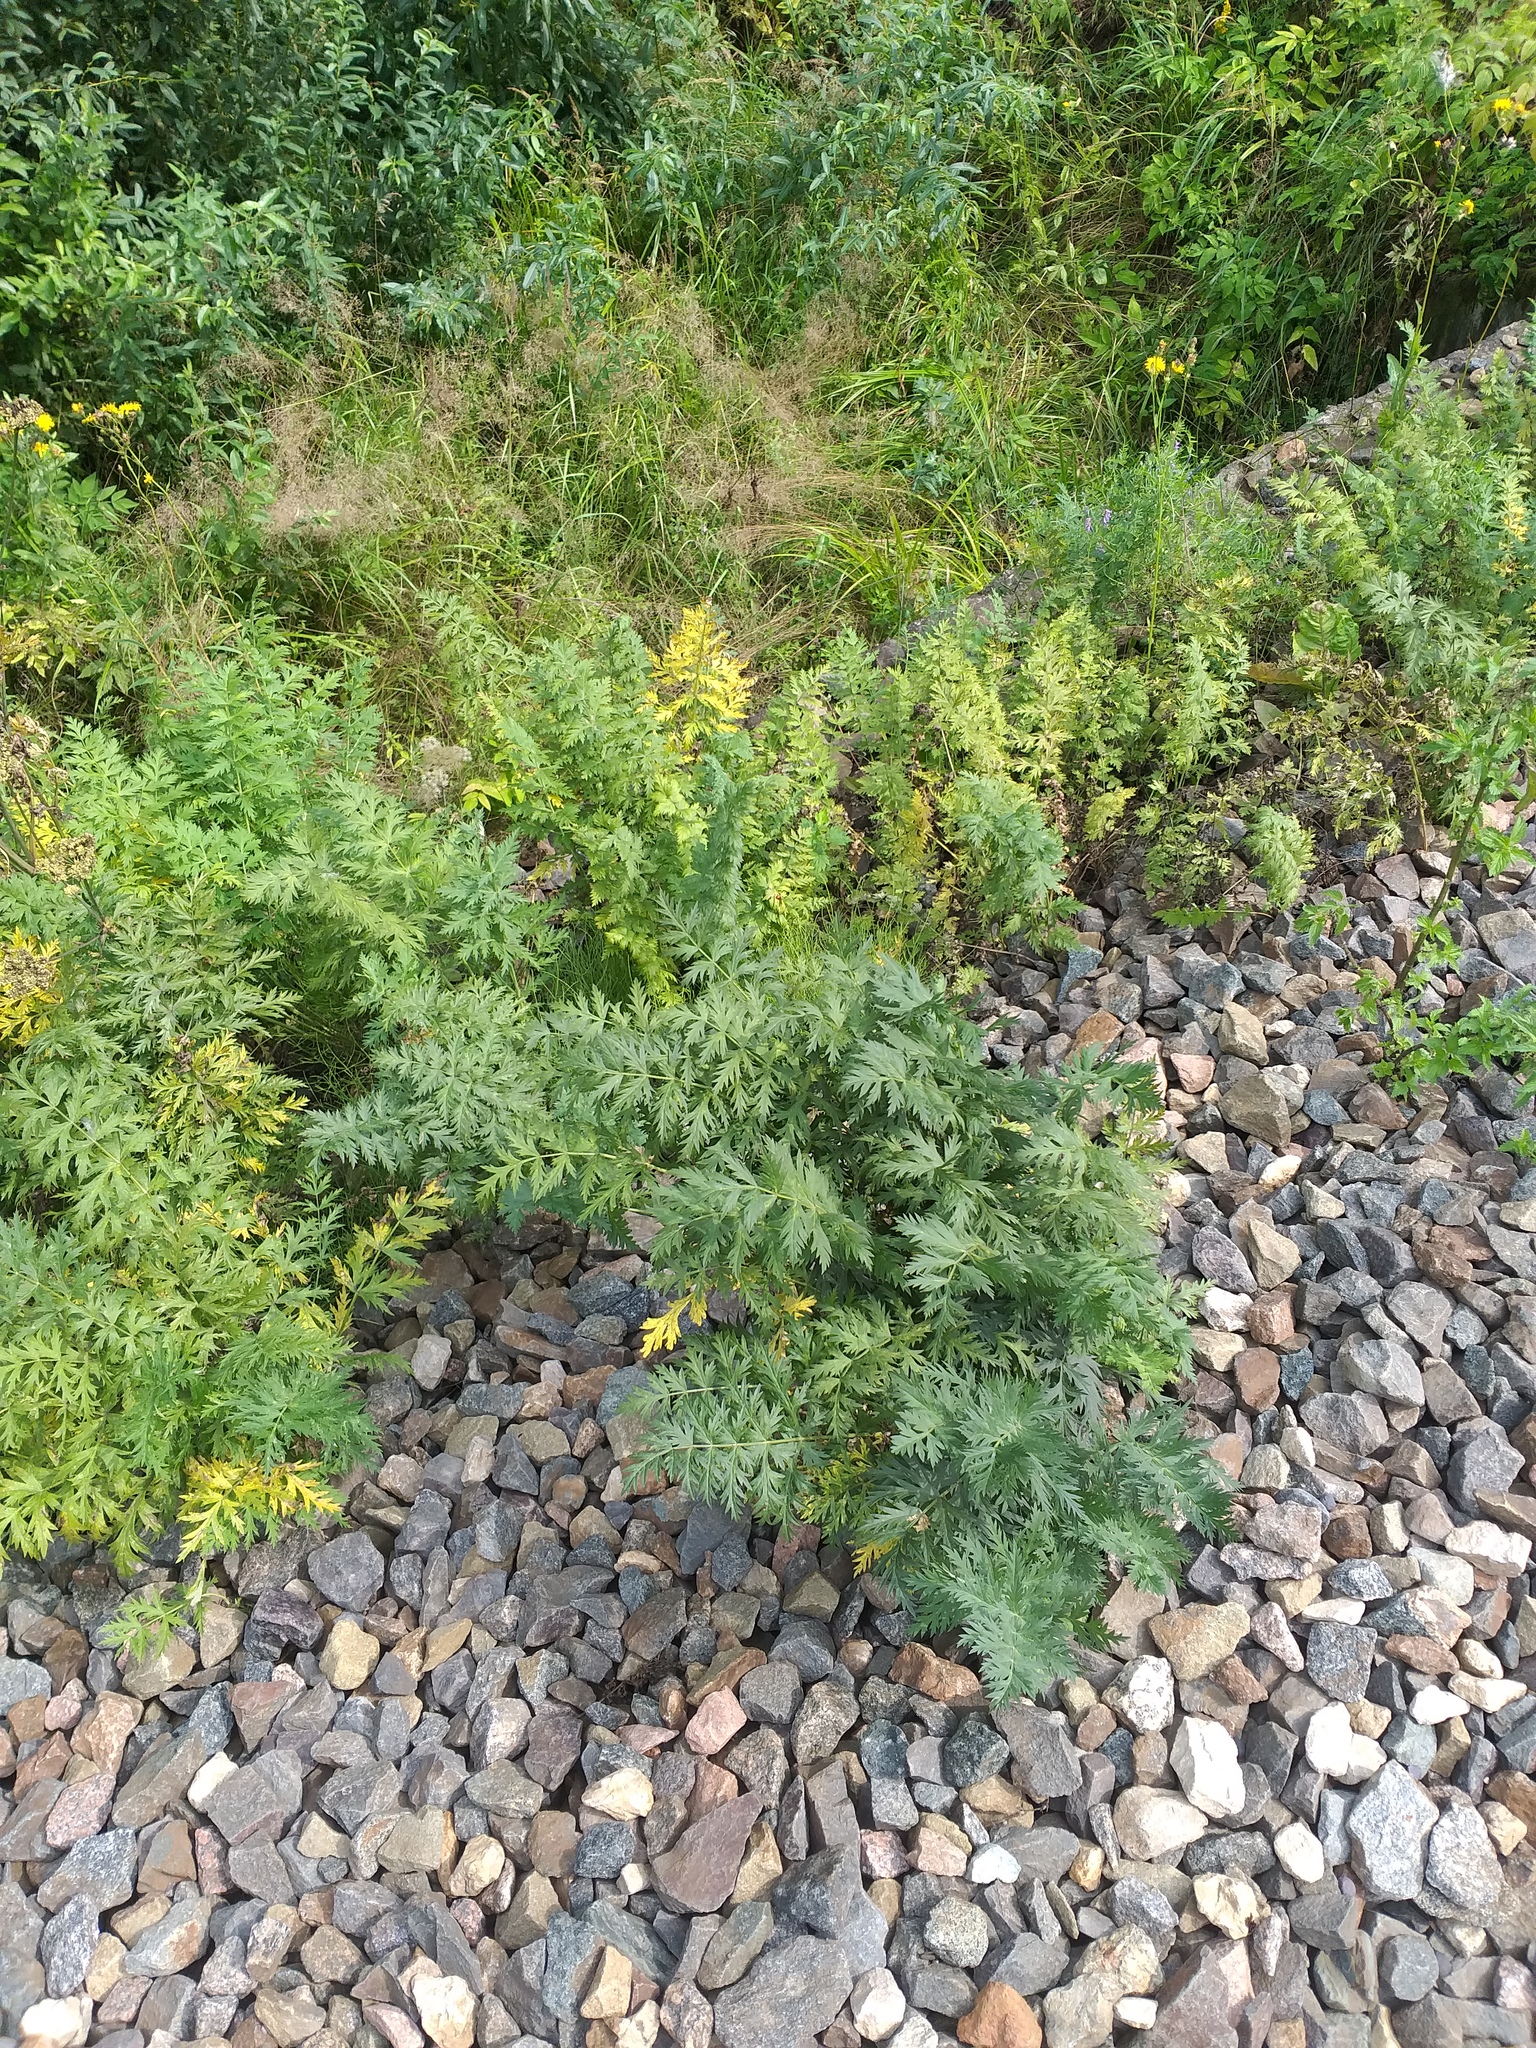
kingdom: Plantae
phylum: Tracheophyta
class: Magnoliopsida
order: Apiales
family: Apiaceae
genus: Seseli
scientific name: Seseli libanotis
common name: Mooncarrot
